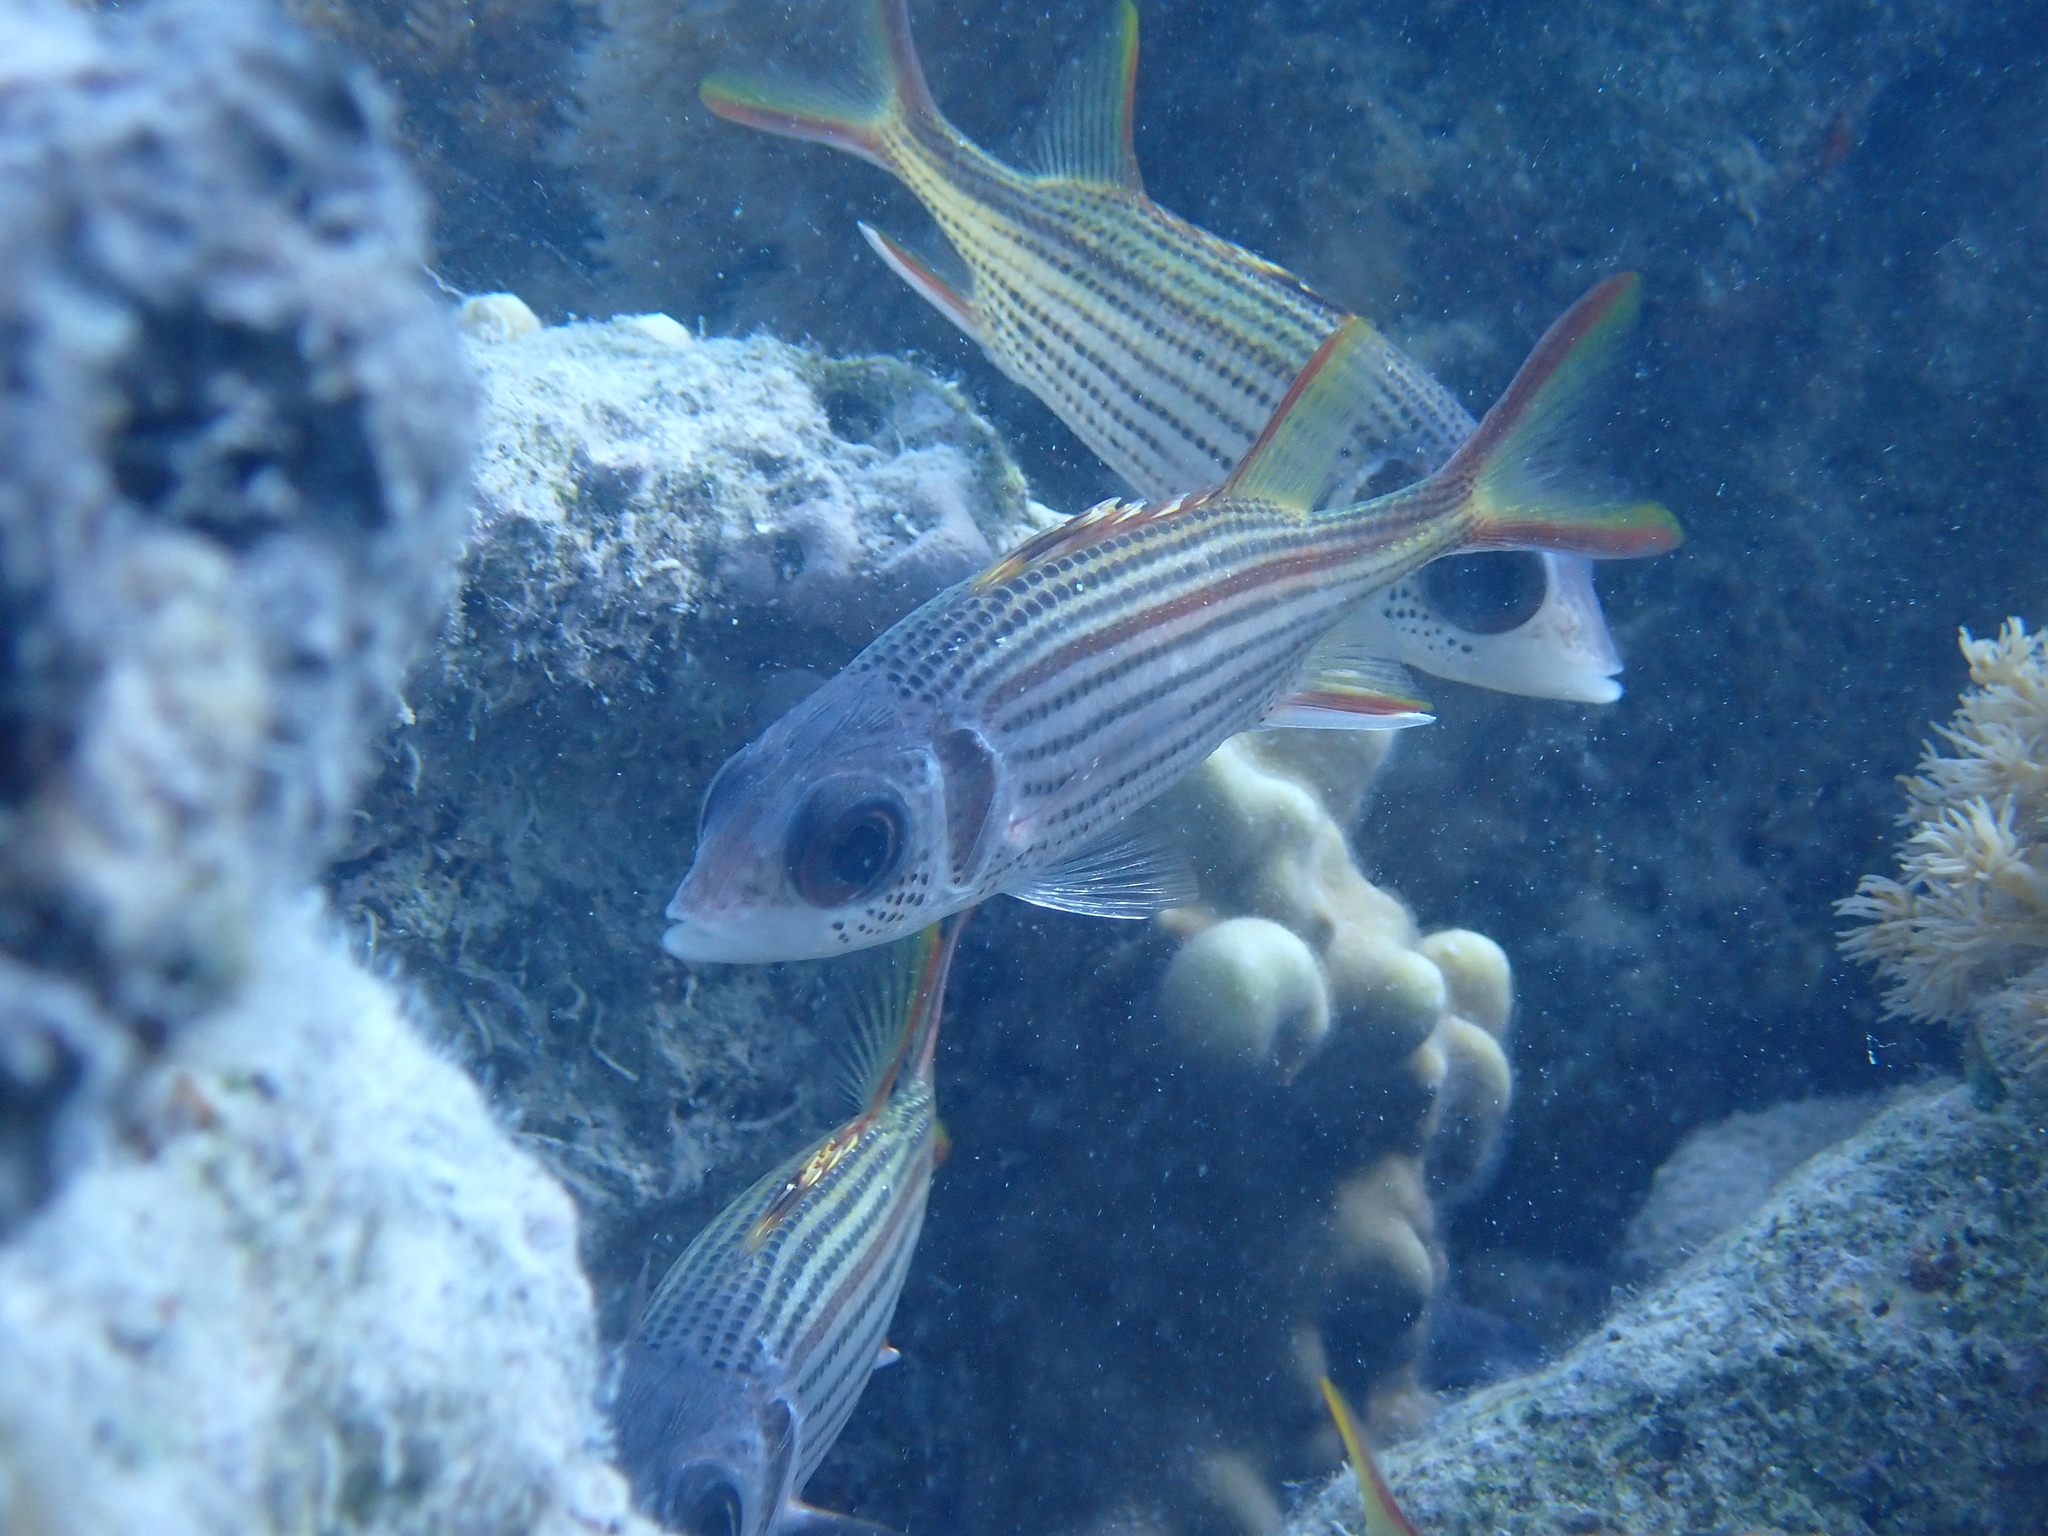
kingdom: Animalia
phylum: Chordata
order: Beryciformes
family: Holocentridae
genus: Neoniphon
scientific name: Neoniphon sammara
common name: Sammara squirrelfish
